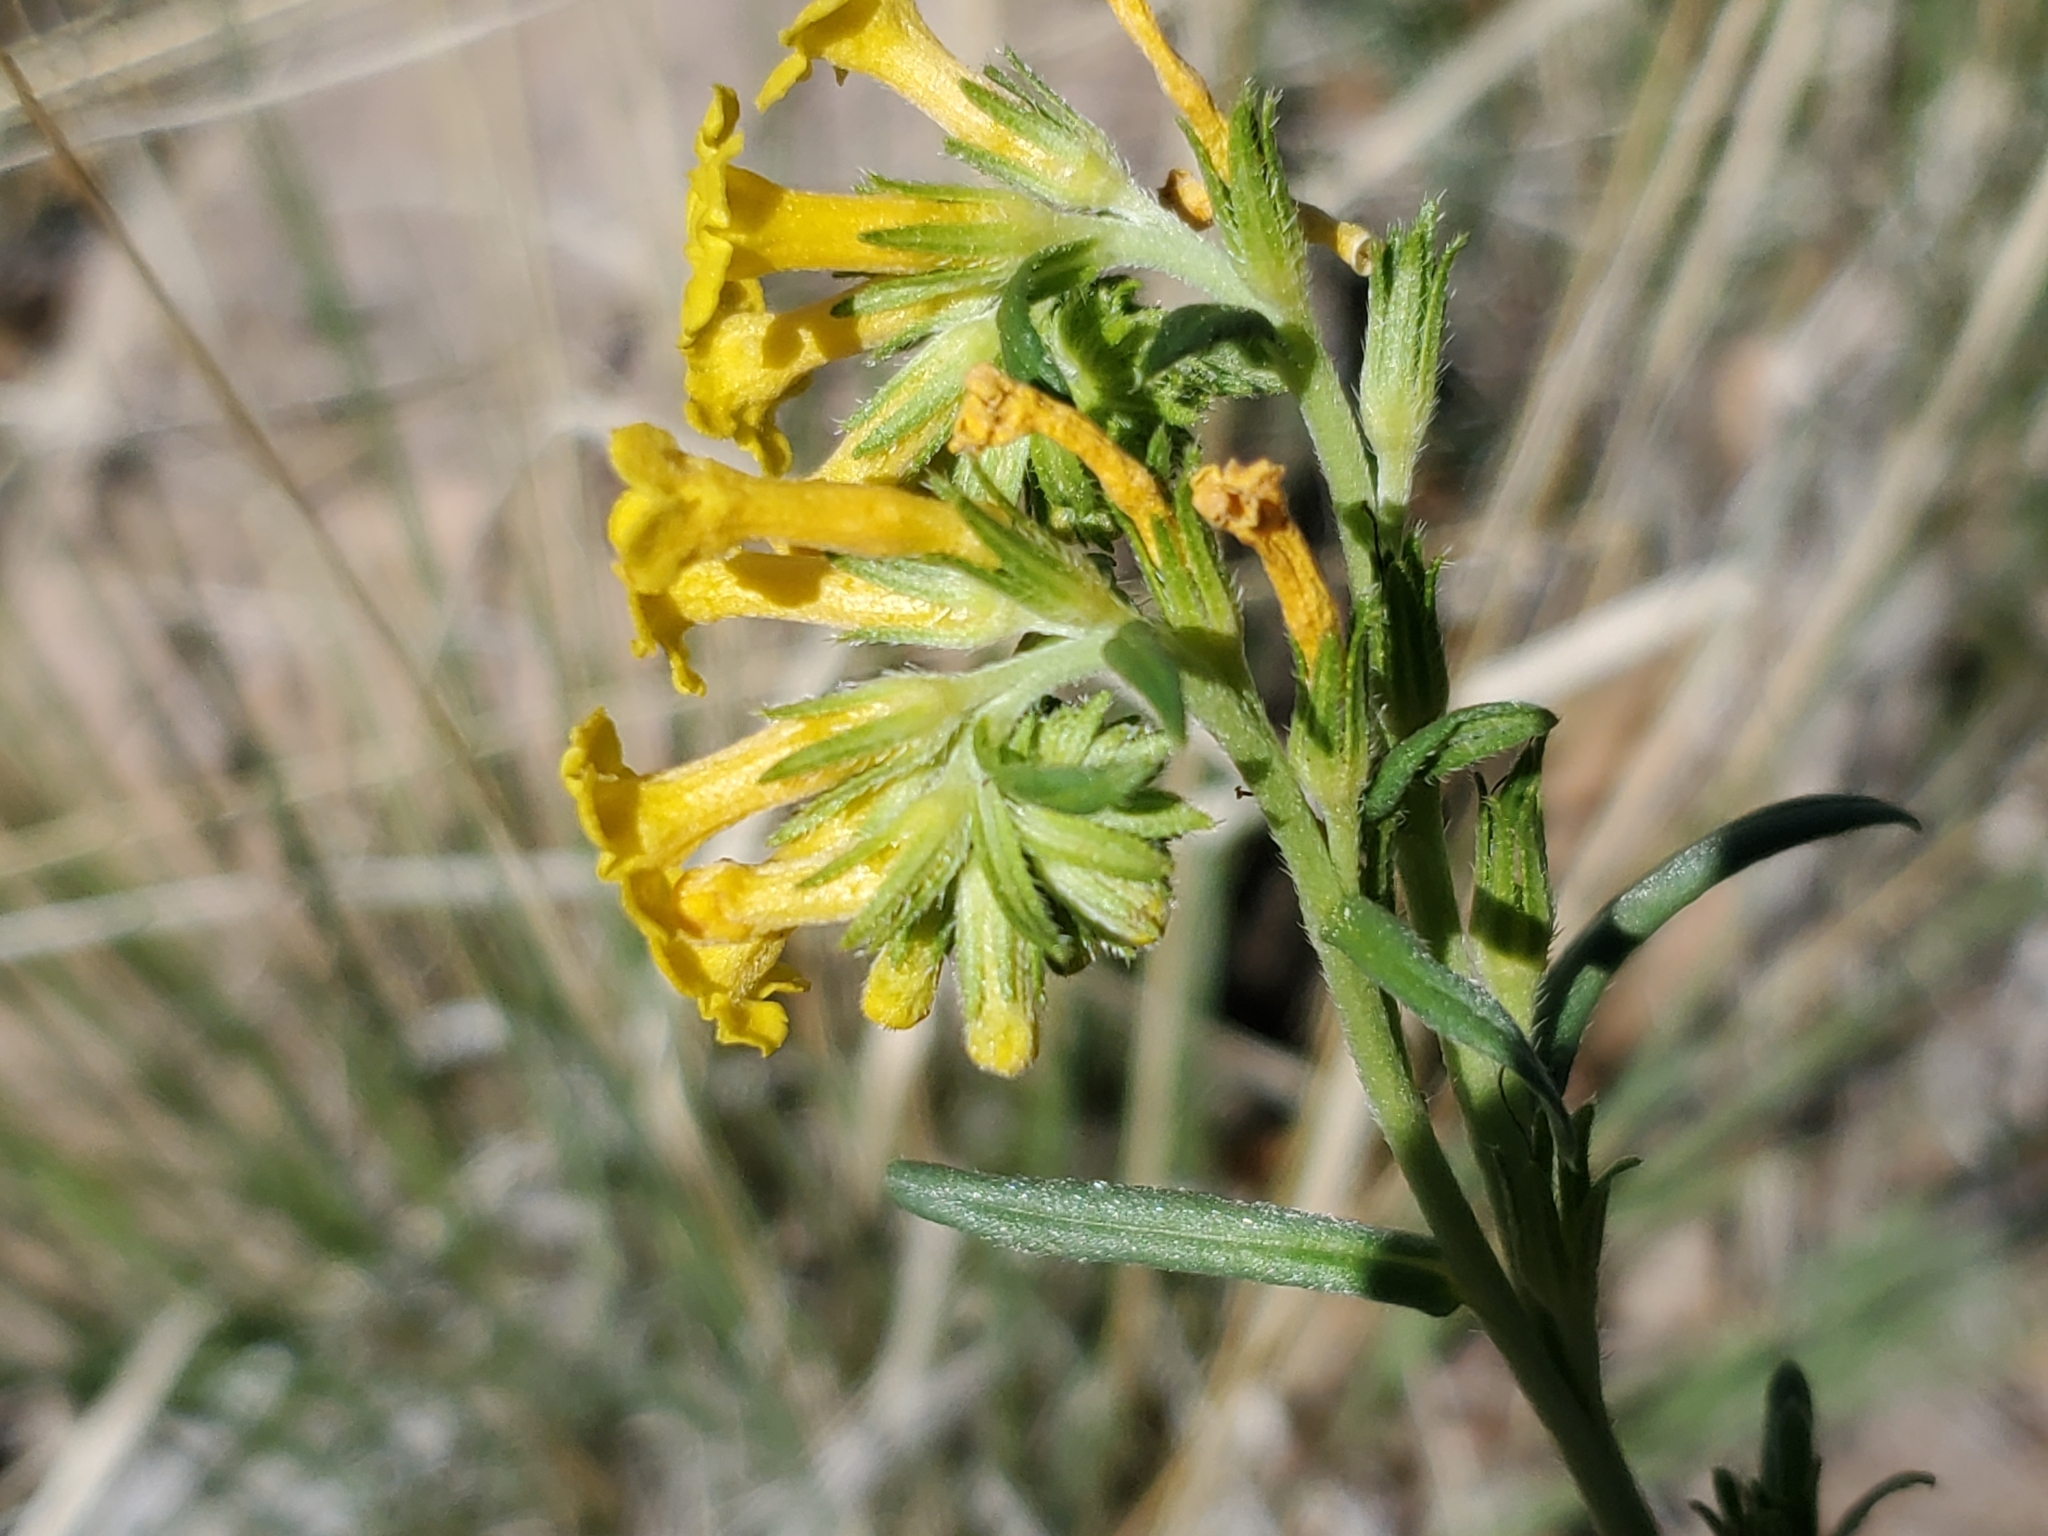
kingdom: Plantae
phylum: Tracheophyta
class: Magnoliopsida
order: Boraginales
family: Boraginaceae
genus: Lithospermum
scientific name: Lithospermum multiflorum
